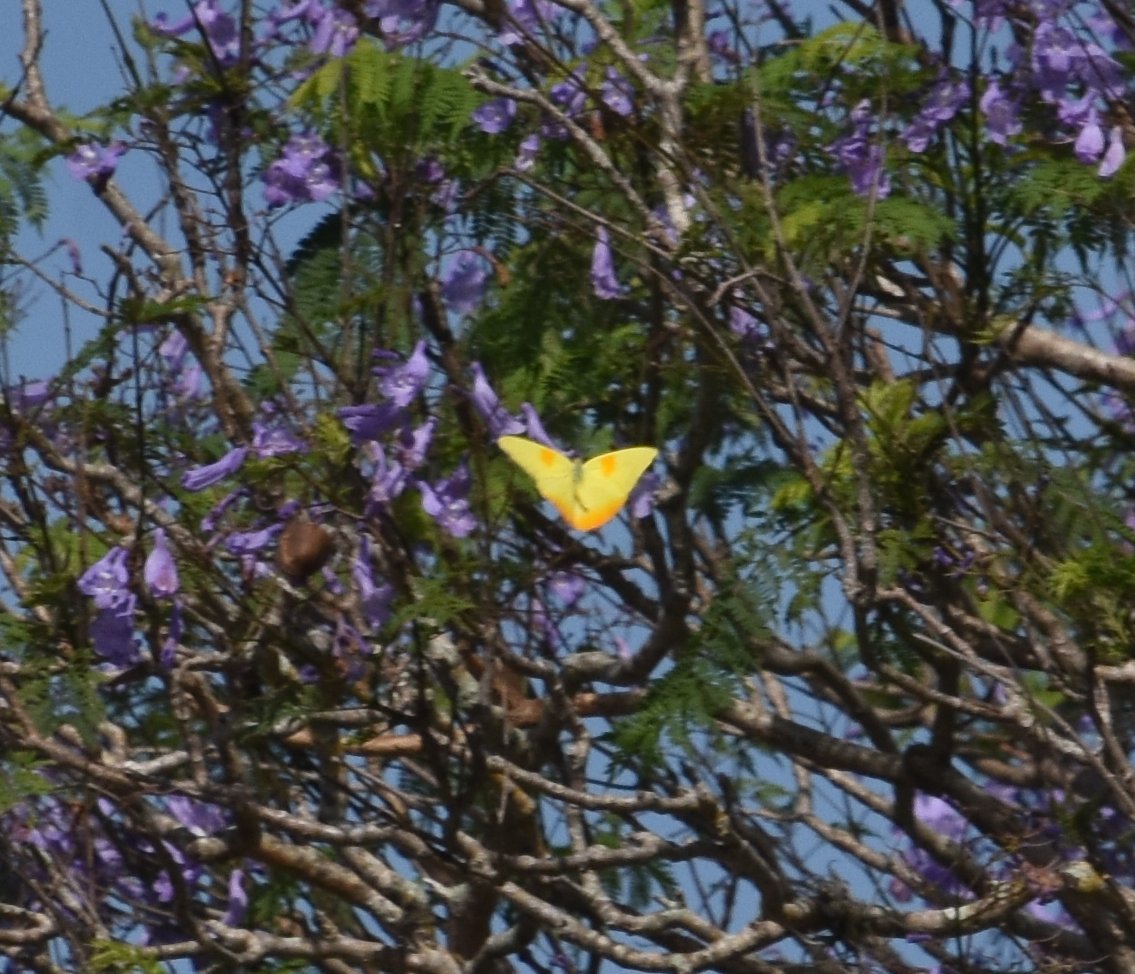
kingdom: Animalia
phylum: Arthropoda
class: Insecta
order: Lepidoptera
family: Pieridae
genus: Phoebis
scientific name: Phoebis philea
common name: Orange-barred giant sulphur
